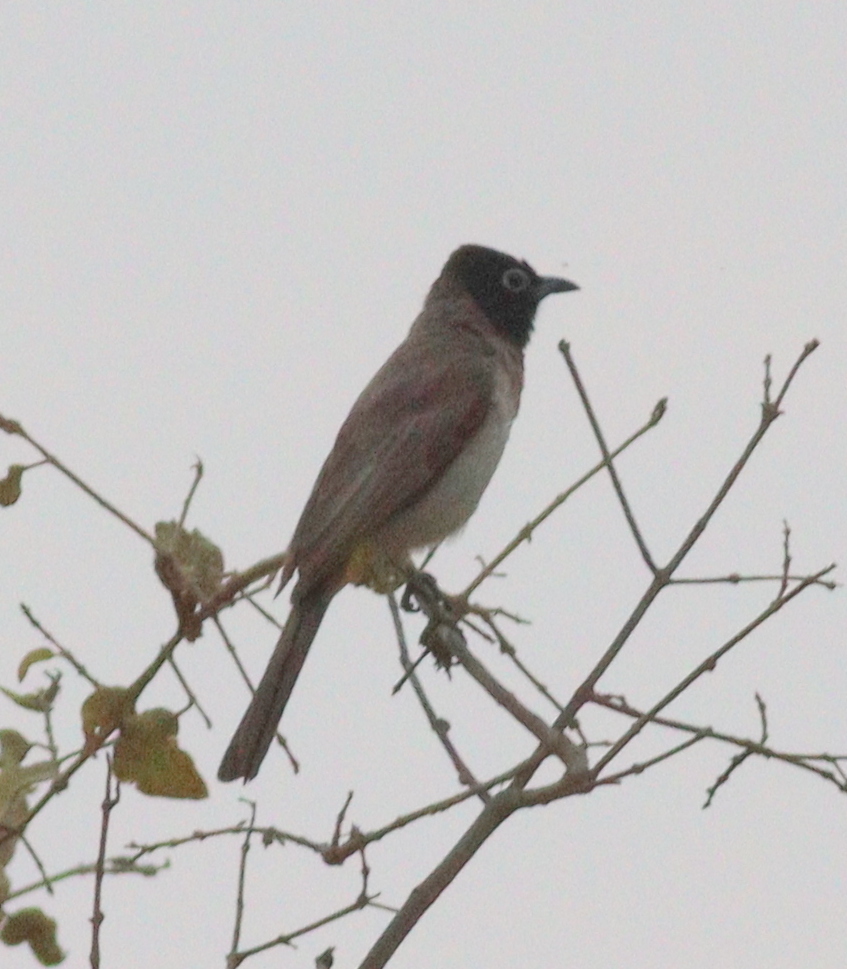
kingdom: Animalia
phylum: Chordata
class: Aves
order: Passeriformes
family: Pycnonotidae
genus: Pycnonotus
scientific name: Pycnonotus xanthopygos
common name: White-spectacled bulbul
